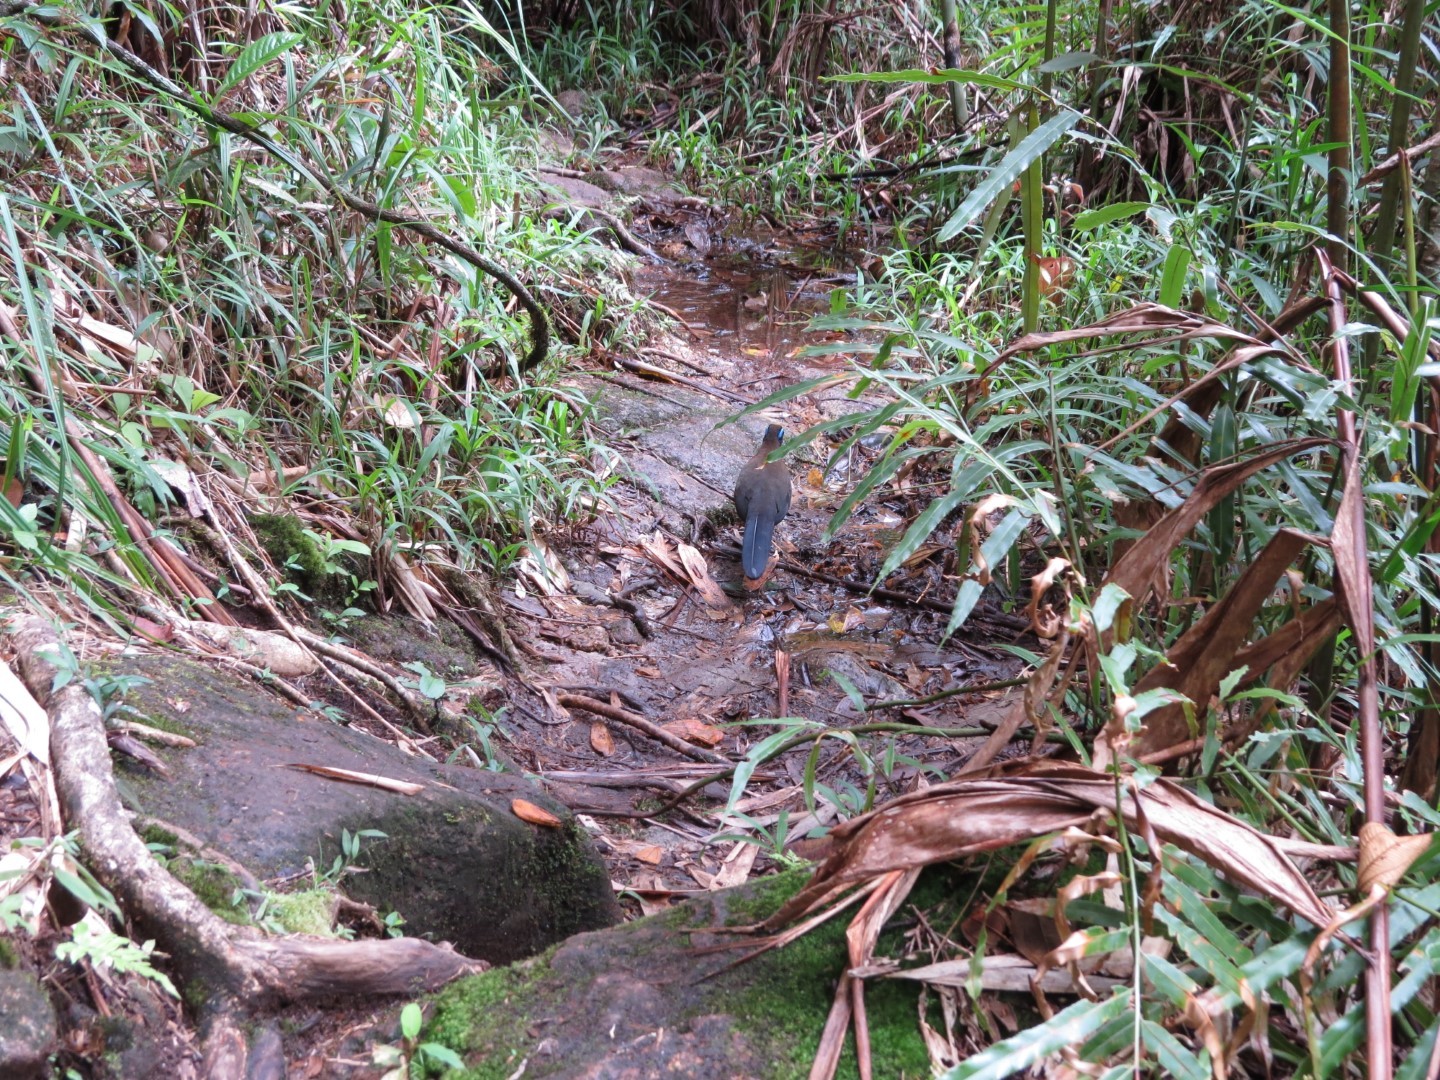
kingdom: Animalia
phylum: Chordata
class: Aves
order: Cuculiformes
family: Cuculidae
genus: Coua
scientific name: Coua serriana
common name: Red-breasted coua
